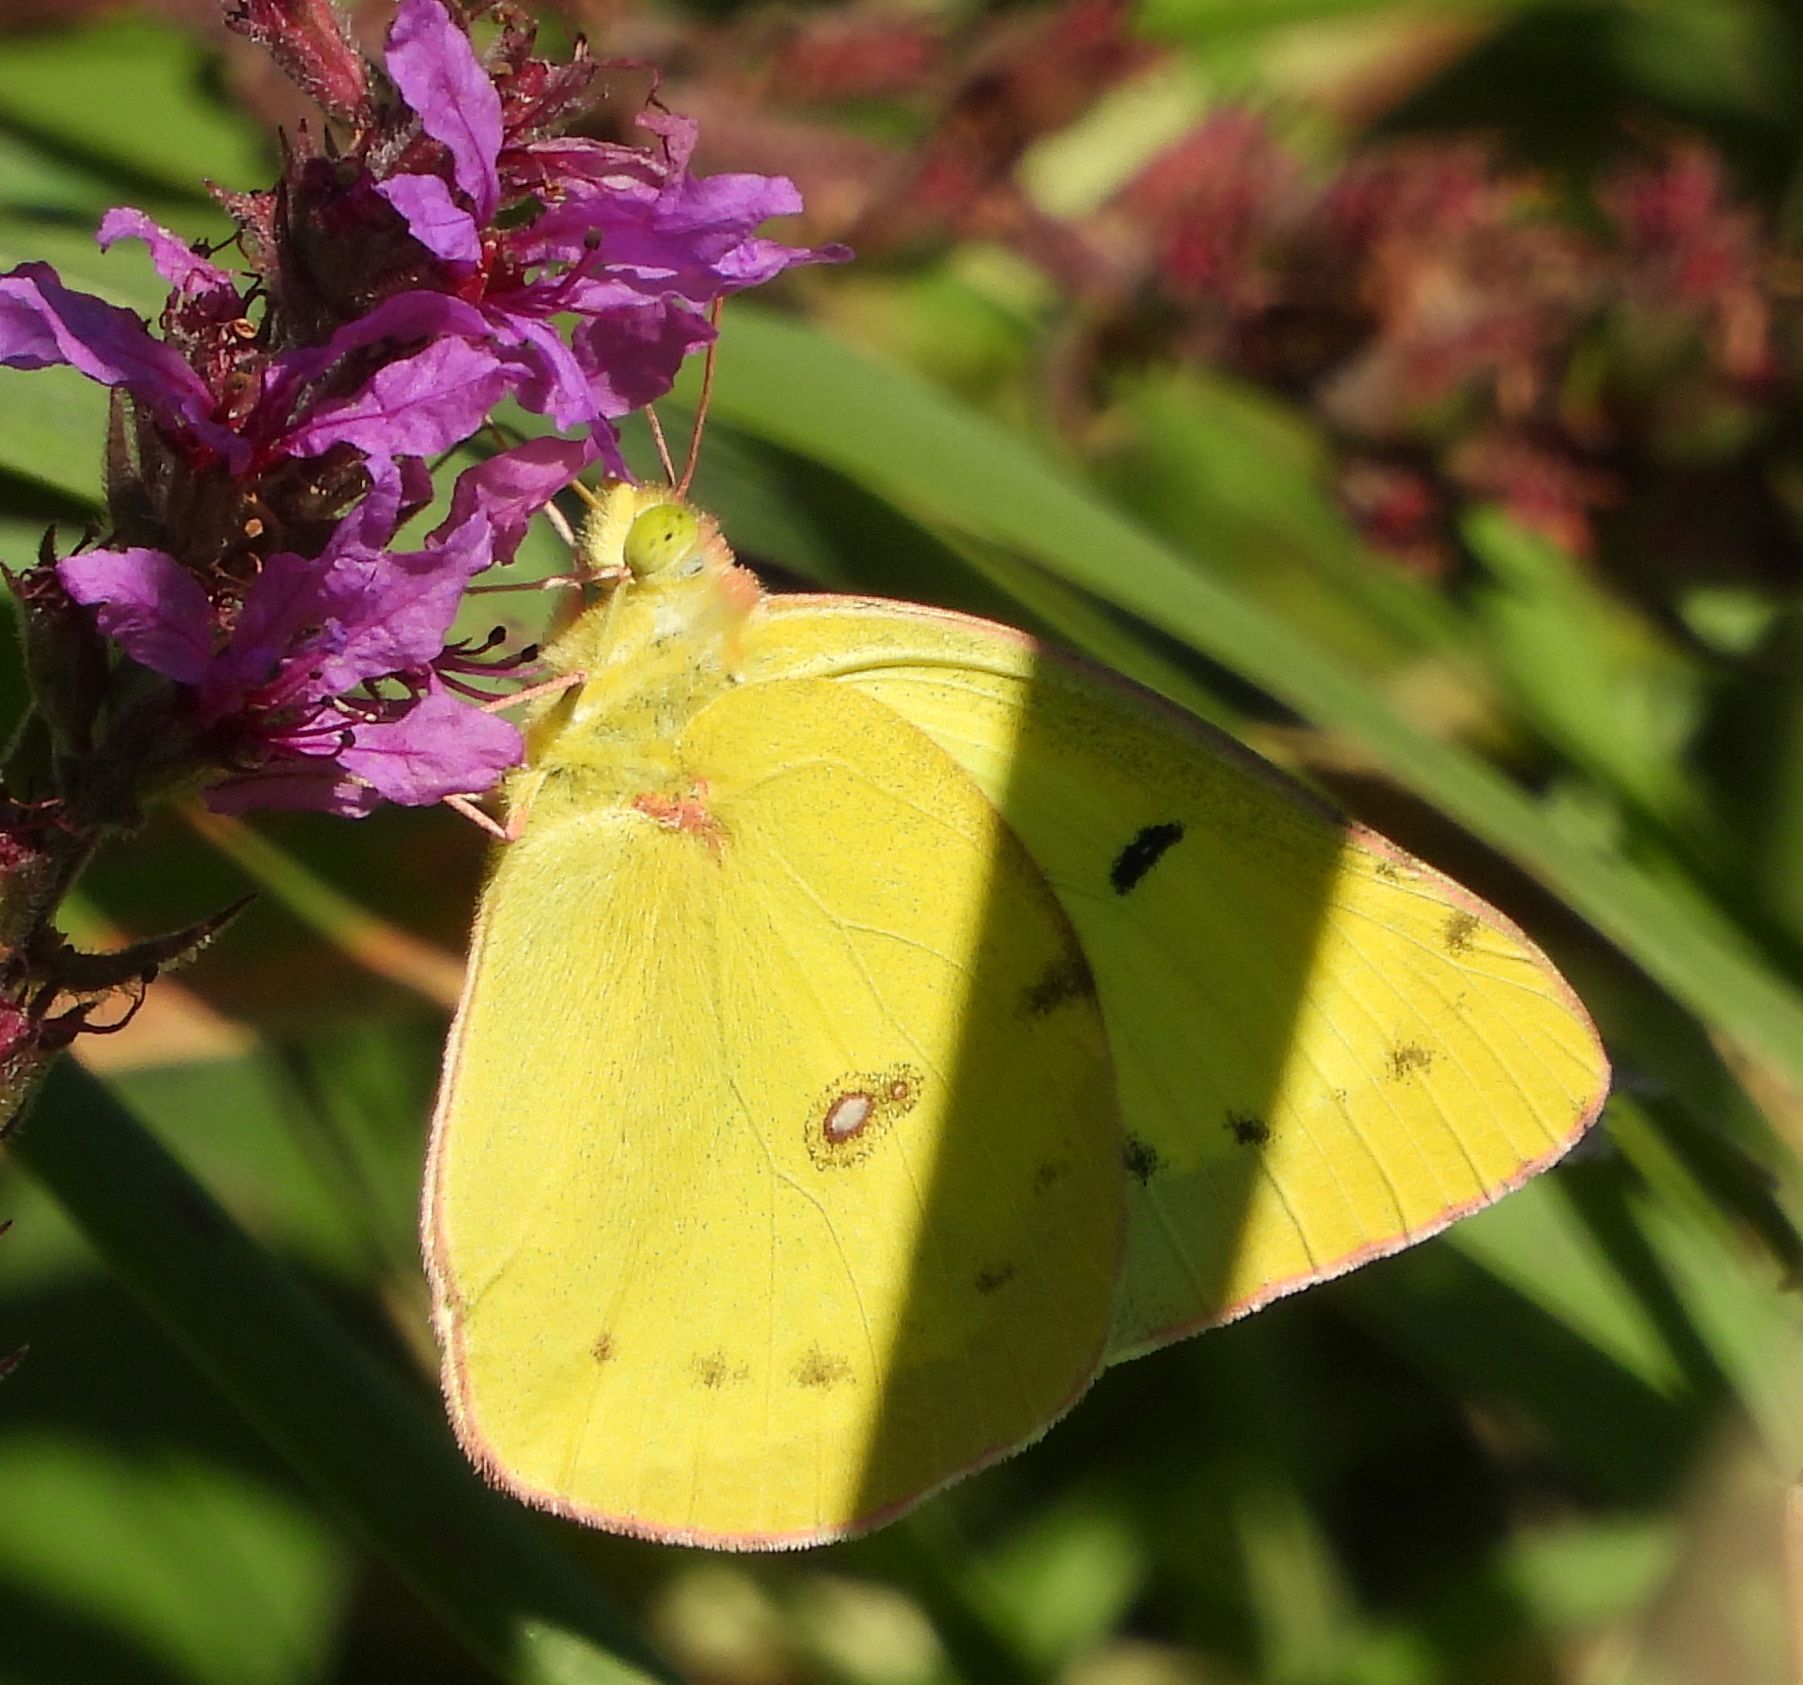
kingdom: Animalia
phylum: Arthropoda
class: Insecta
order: Lepidoptera
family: Pieridae
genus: Colias
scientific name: Colias philodice
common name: Clouded sulphur
